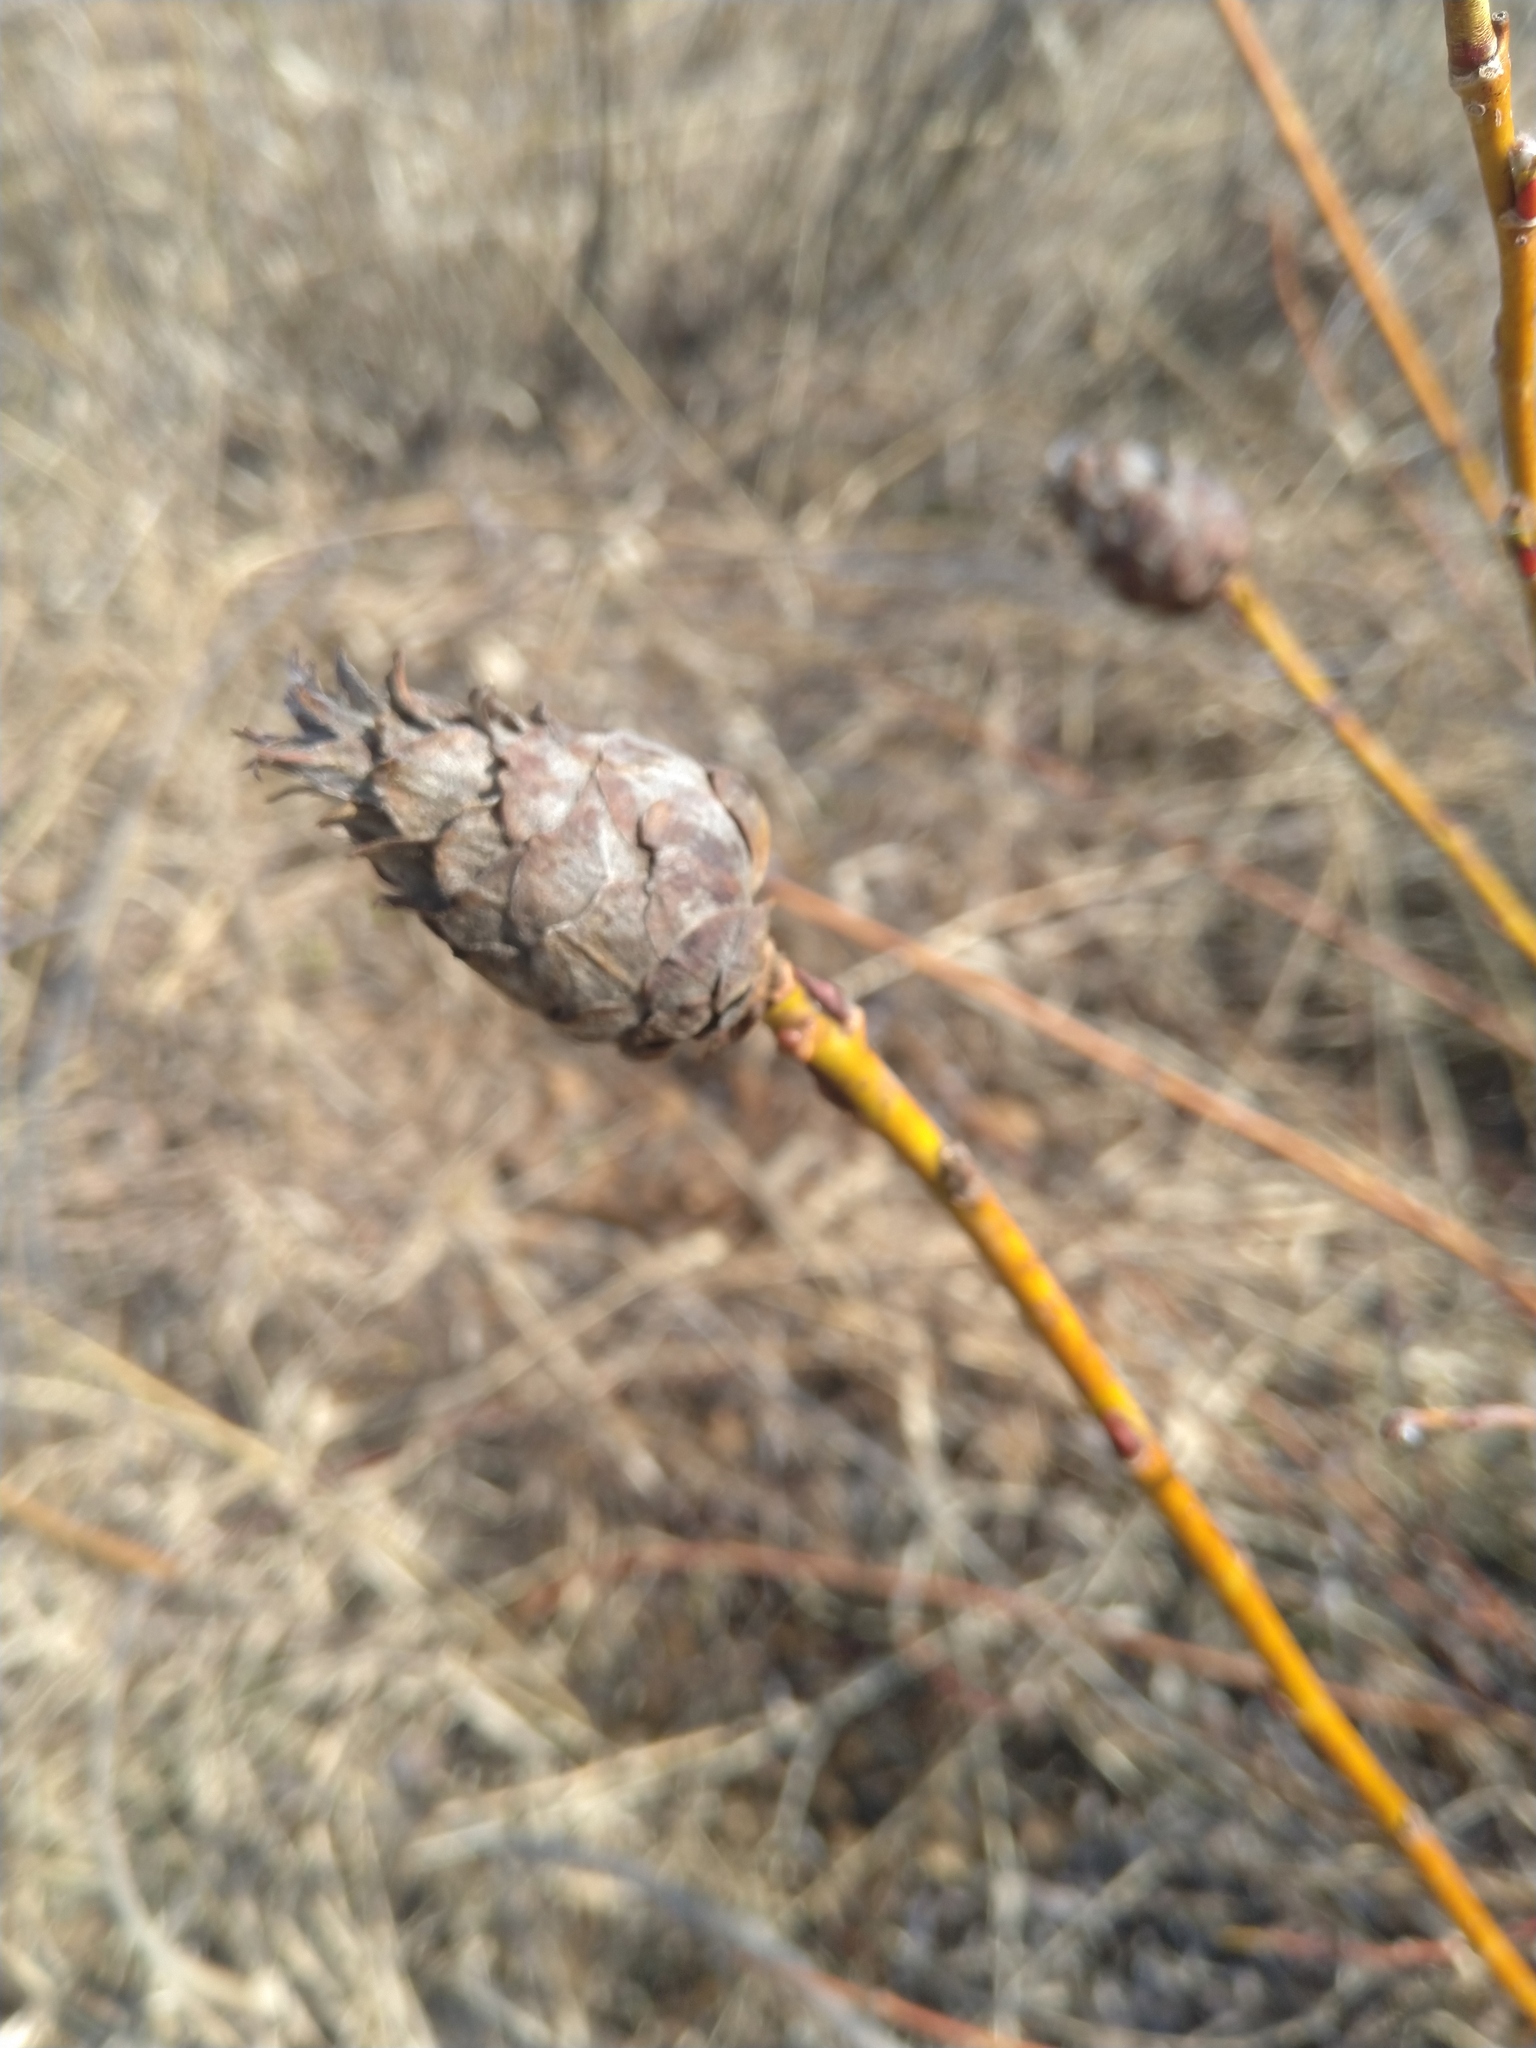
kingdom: Animalia
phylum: Arthropoda
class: Insecta
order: Diptera
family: Cecidomyiidae
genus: Rabdophaga
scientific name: Rabdophaga strobiloides
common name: Willow pinecone gall midge
